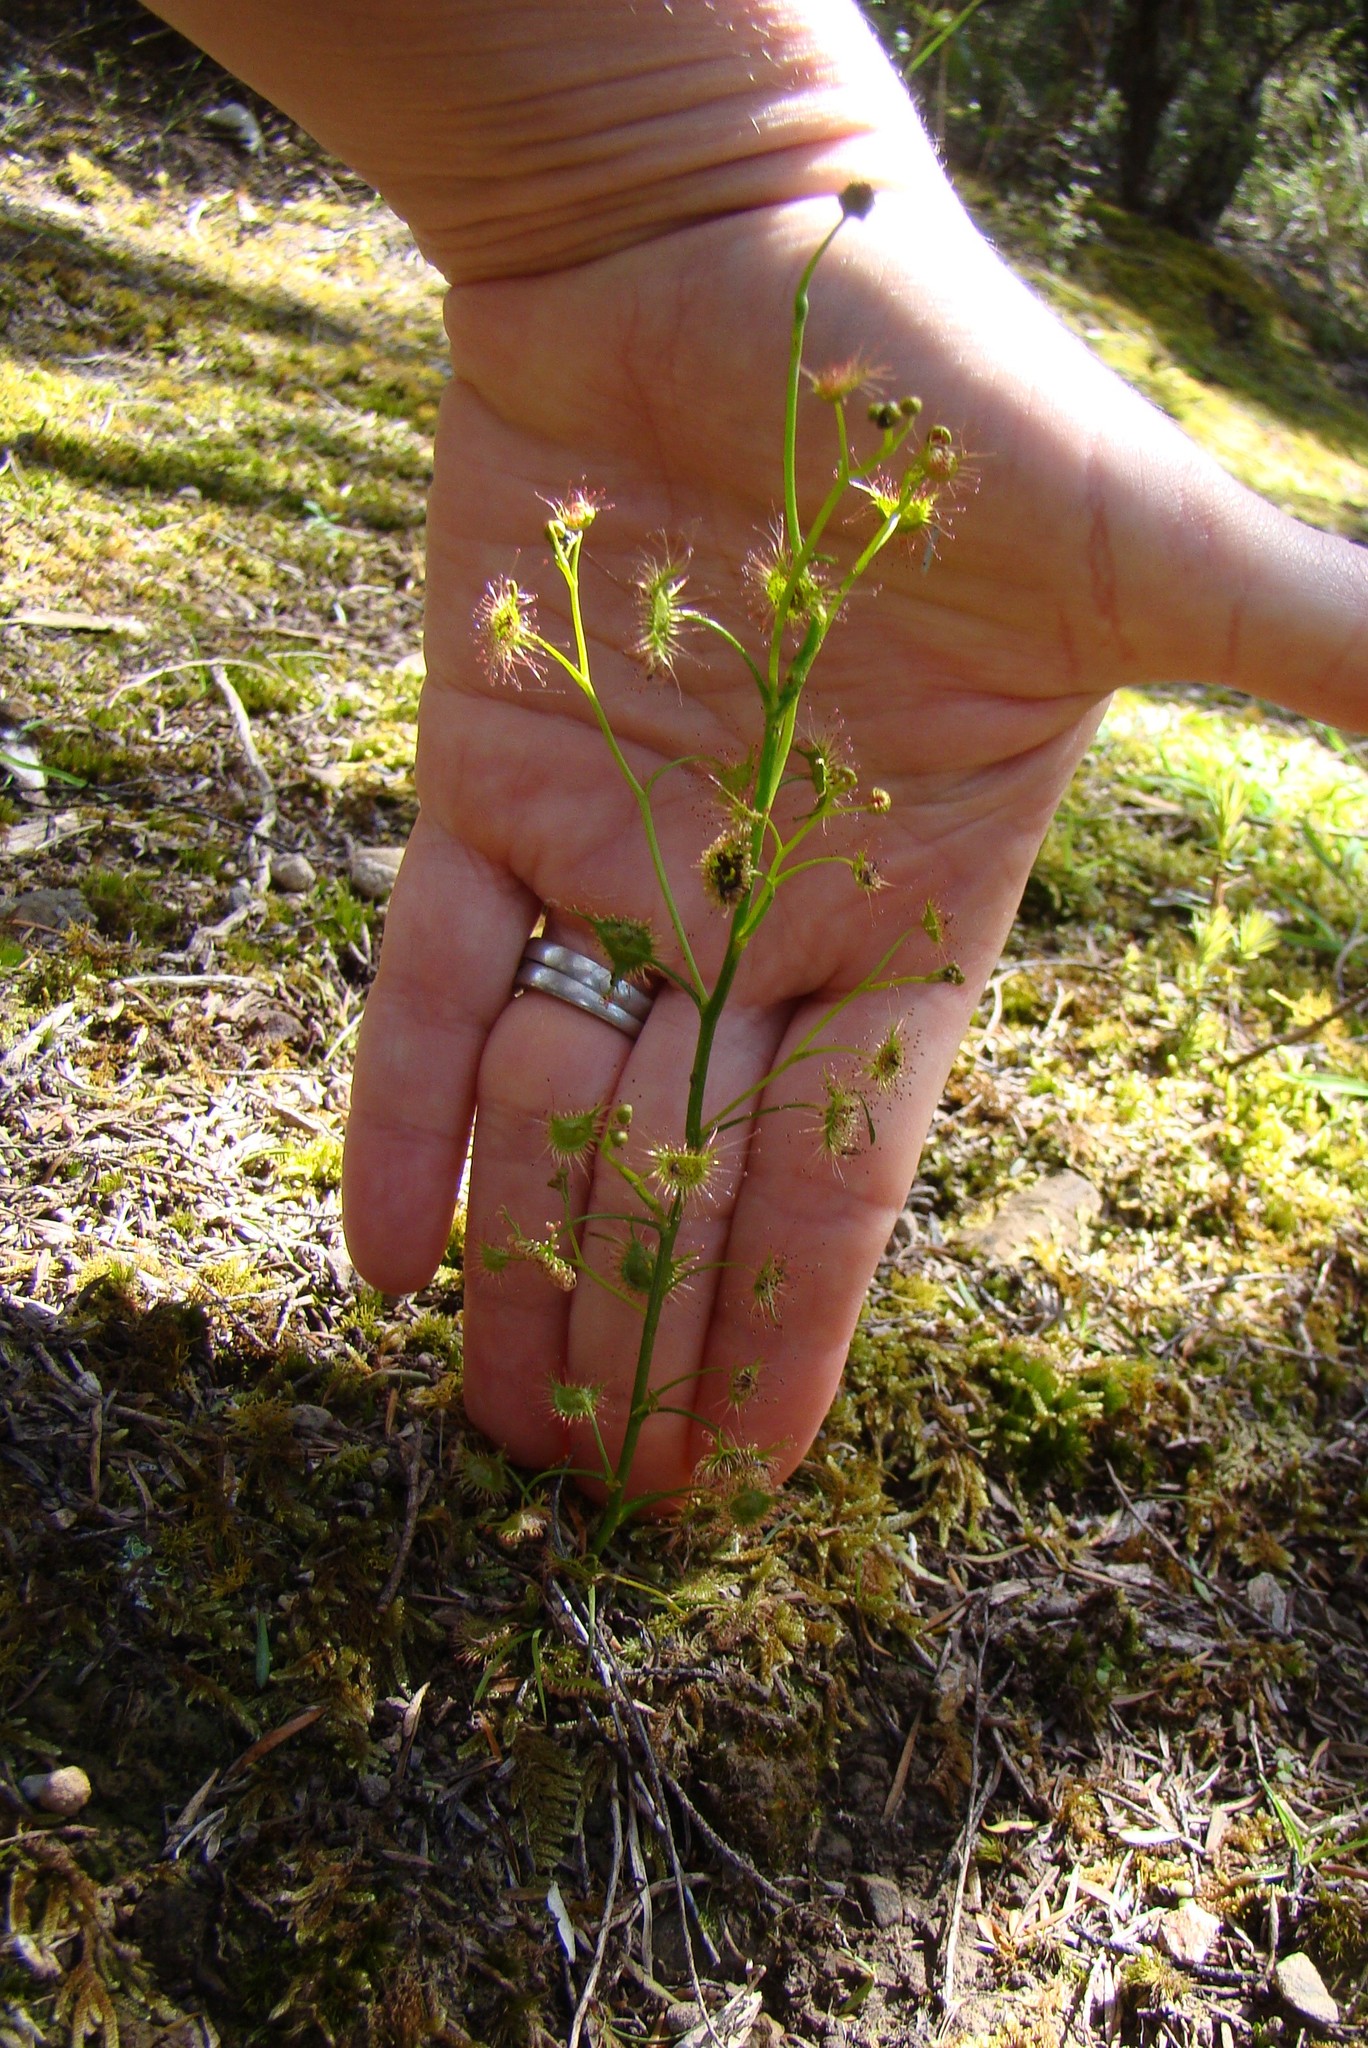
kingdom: Plantae
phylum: Tracheophyta
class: Magnoliopsida
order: Caryophyllales
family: Droseraceae
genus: Drosera
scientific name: Drosera peltata
